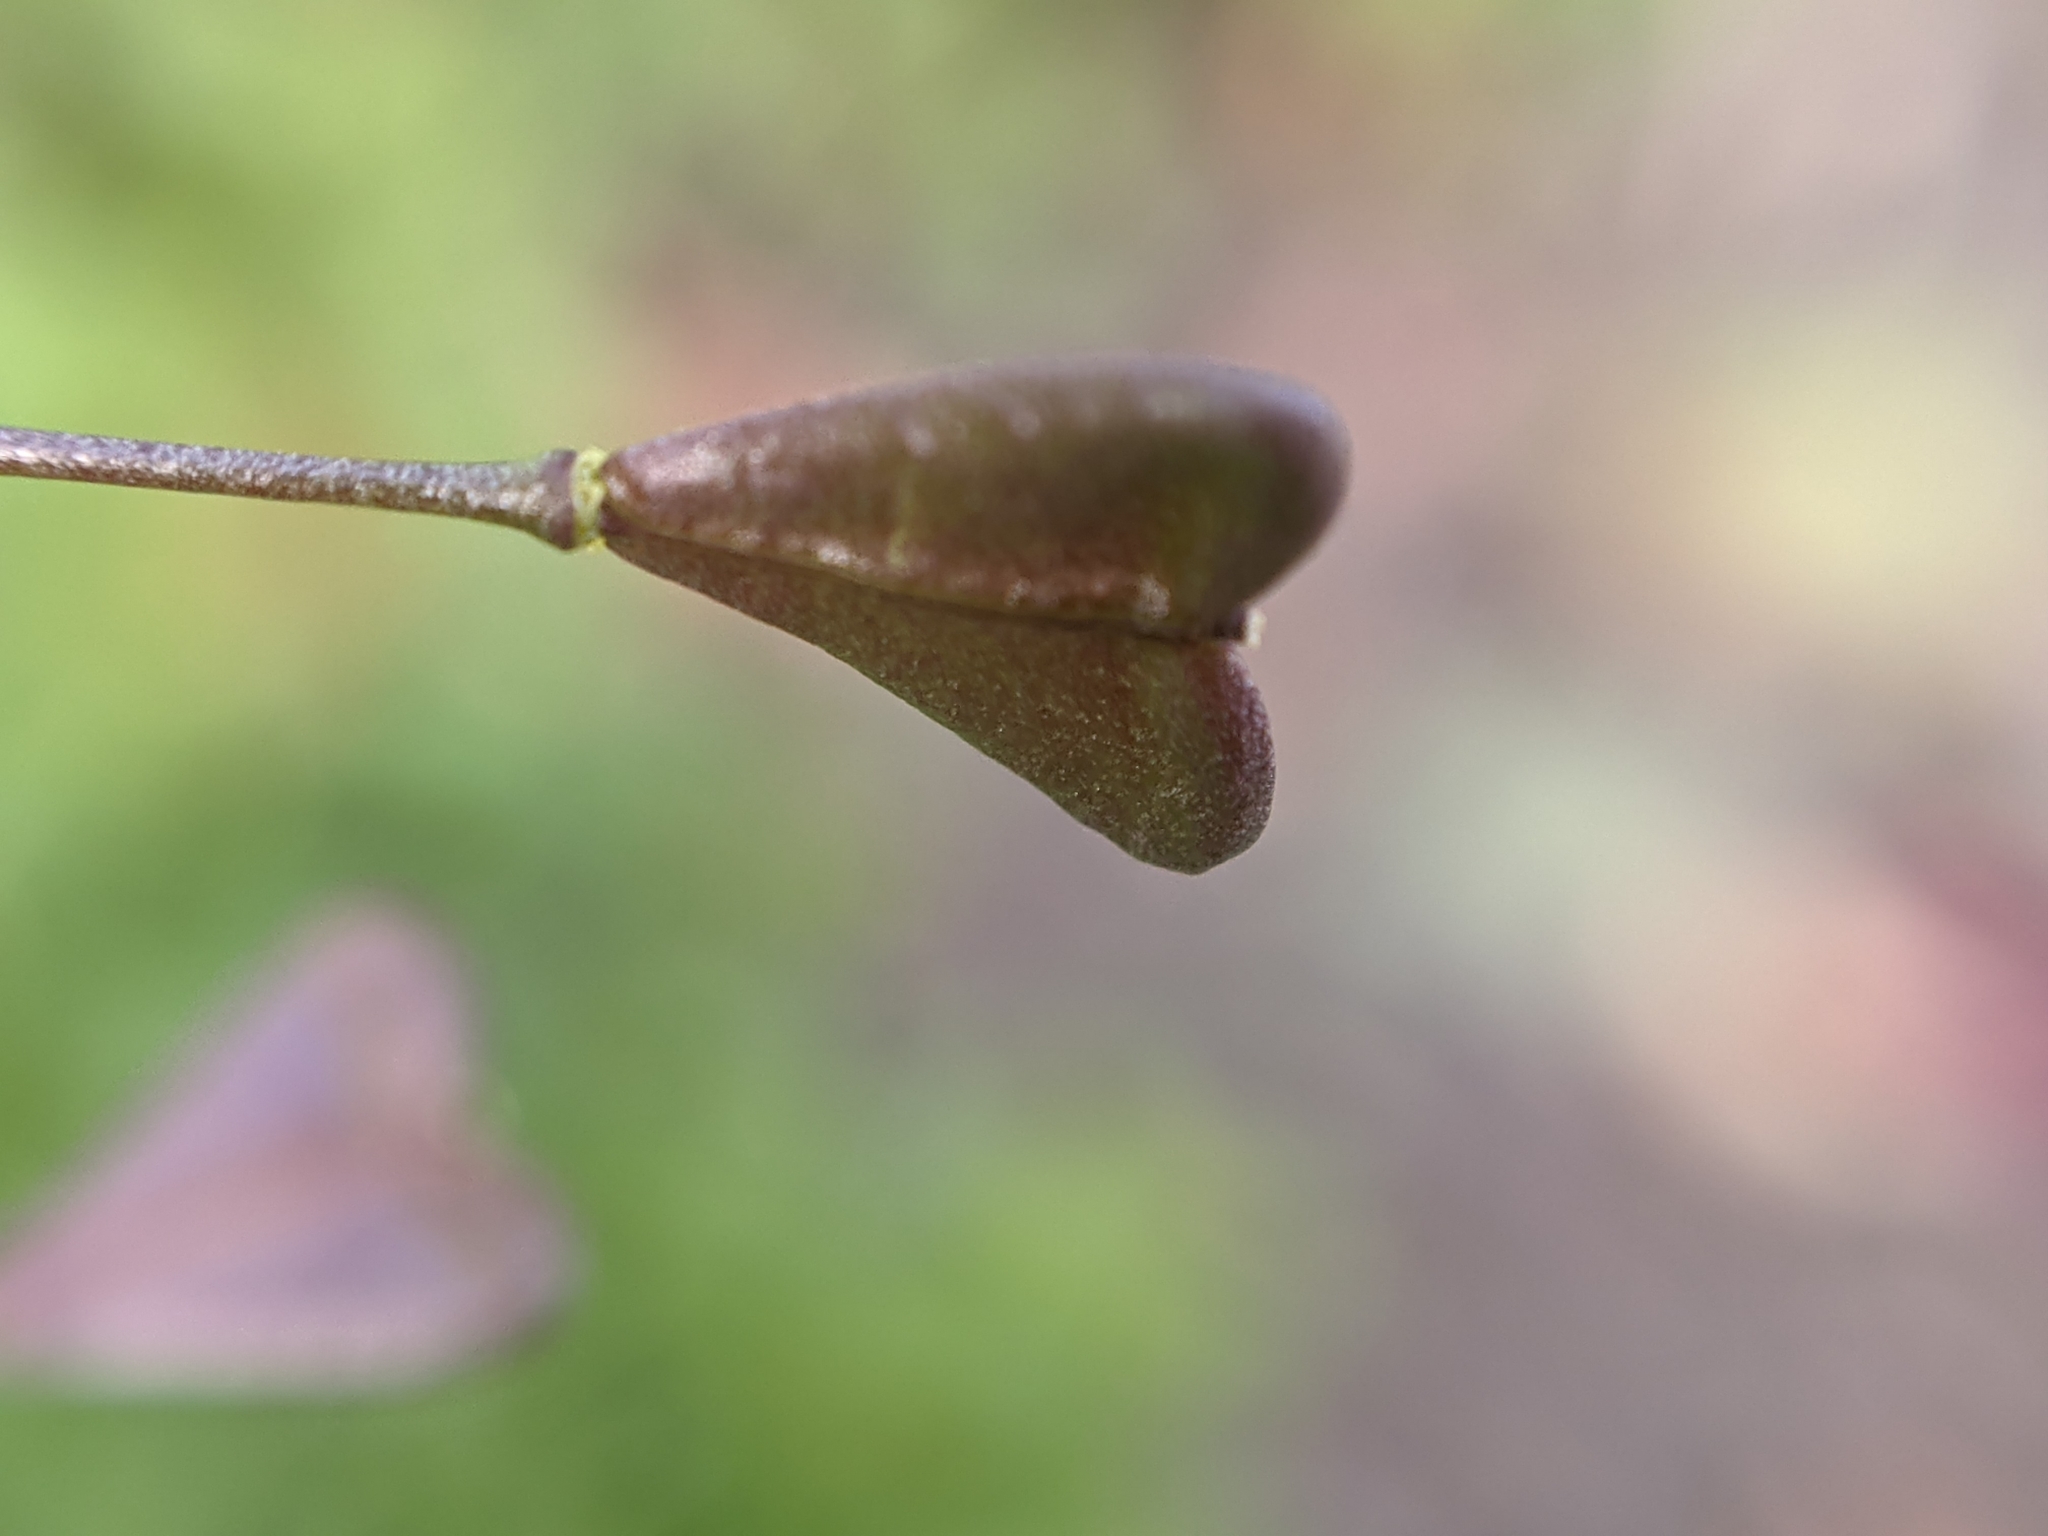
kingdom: Plantae
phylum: Tracheophyta
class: Magnoliopsida
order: Brassicales
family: Brassicaceae
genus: Capsella
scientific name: Capsella bursa-pastoris
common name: Shepherd's purse
